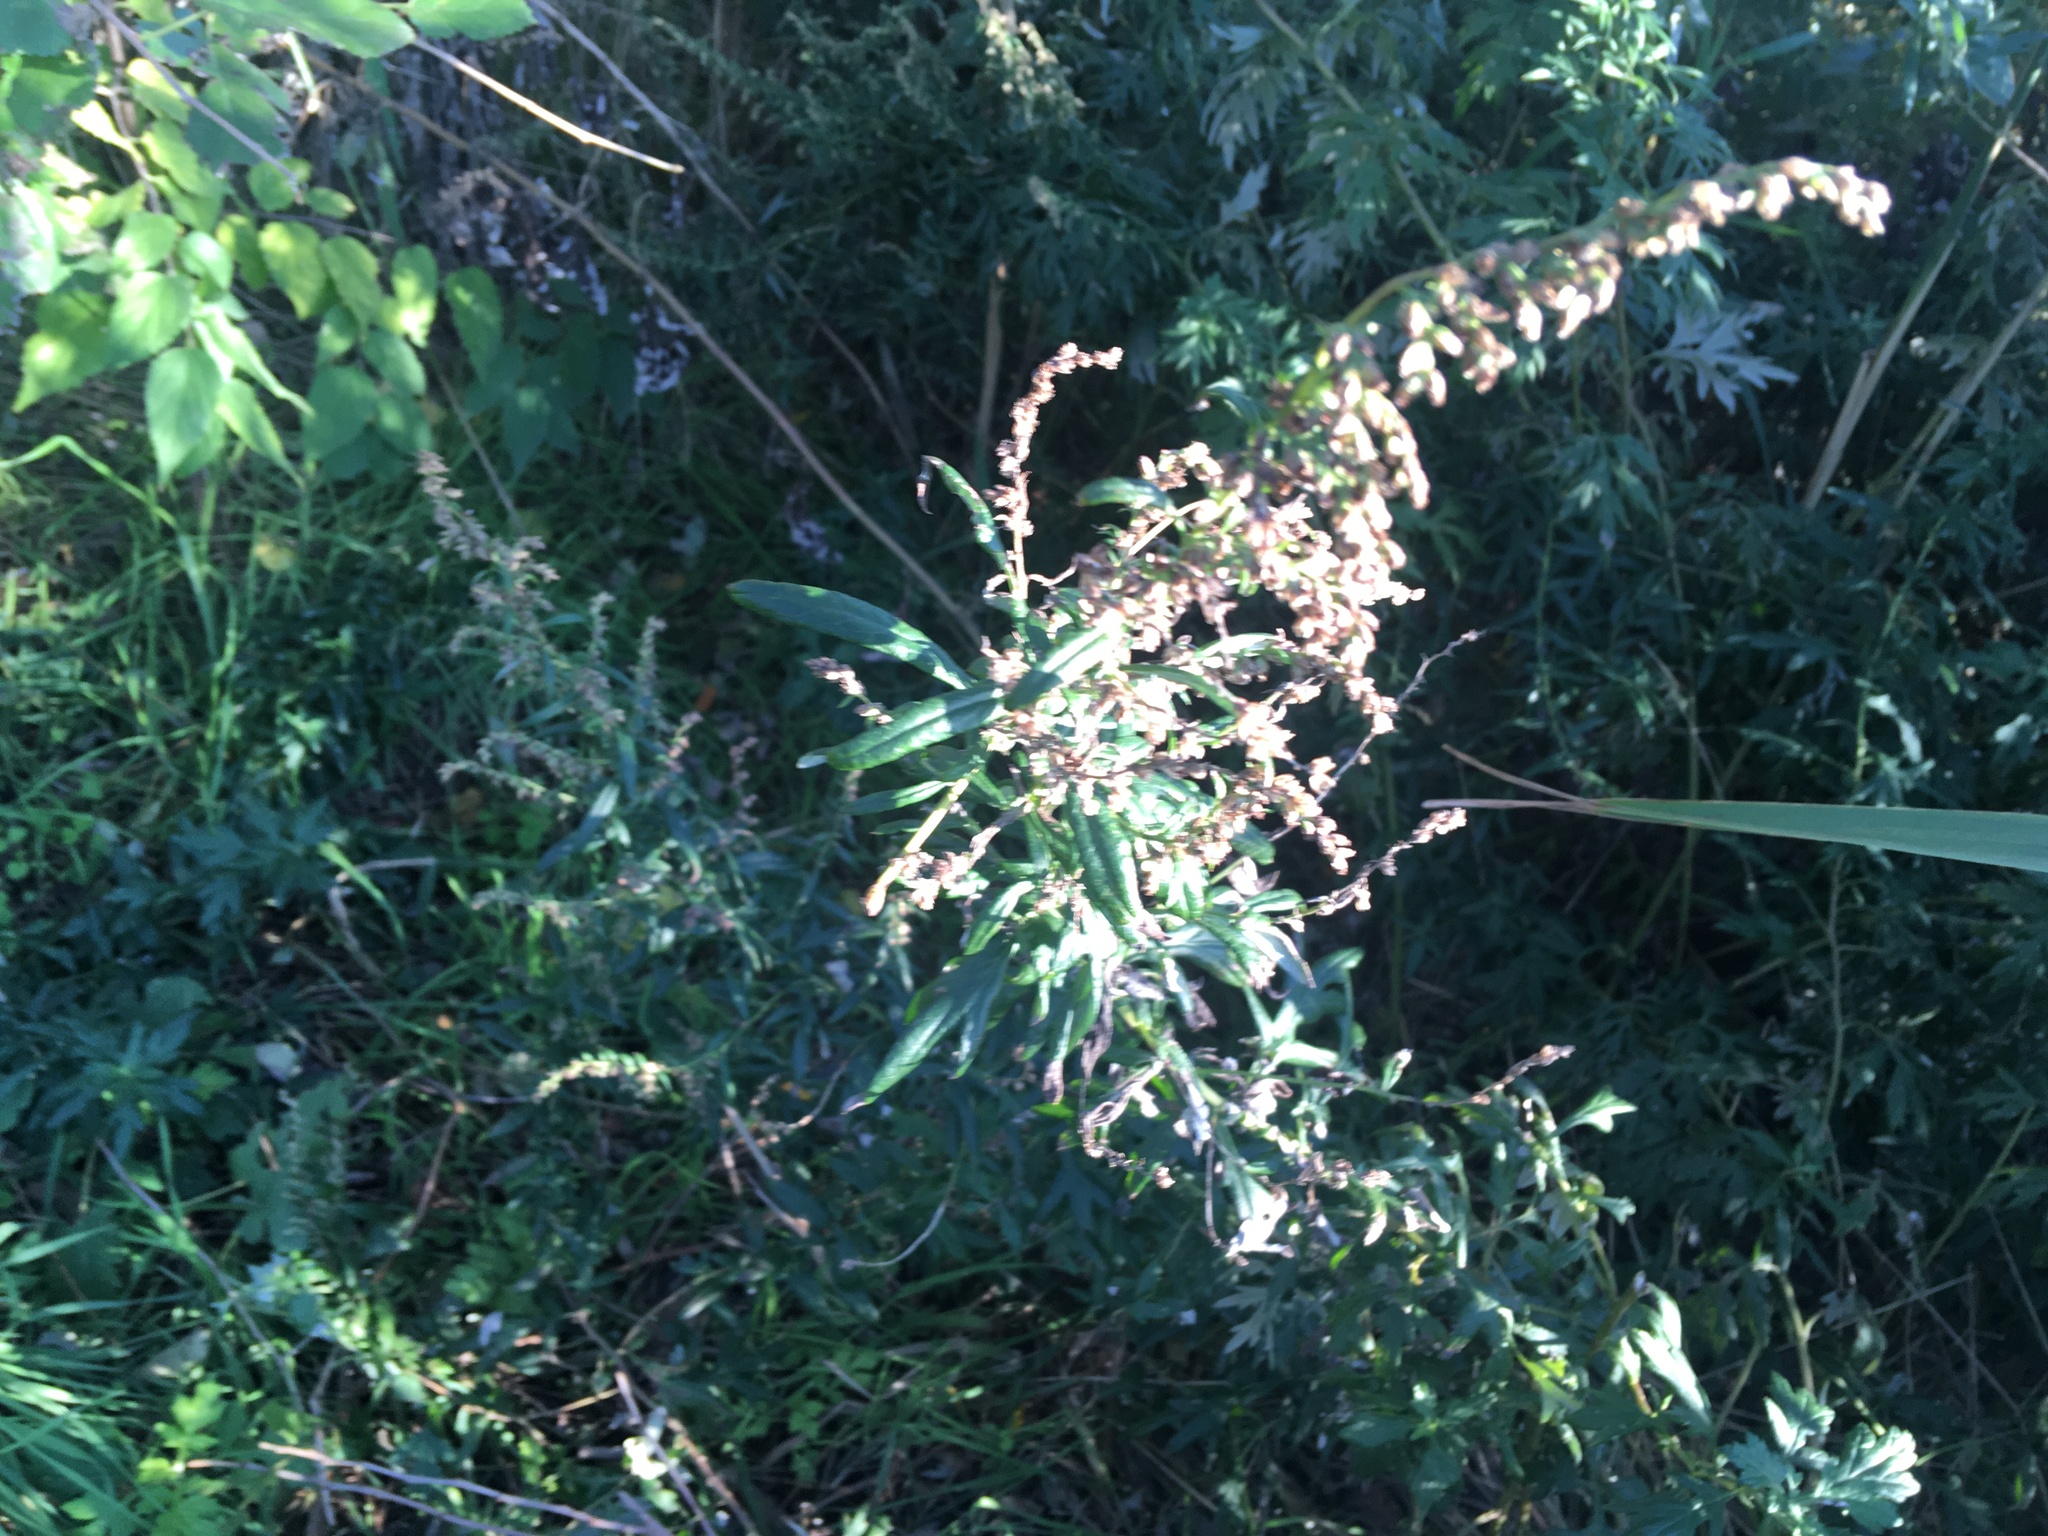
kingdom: Plantae
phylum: Tracheophyta
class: Magnoliopsida
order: Asterales
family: Asteraceae
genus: Artemisia
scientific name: Artemisia vulgaris
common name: Mugwort
